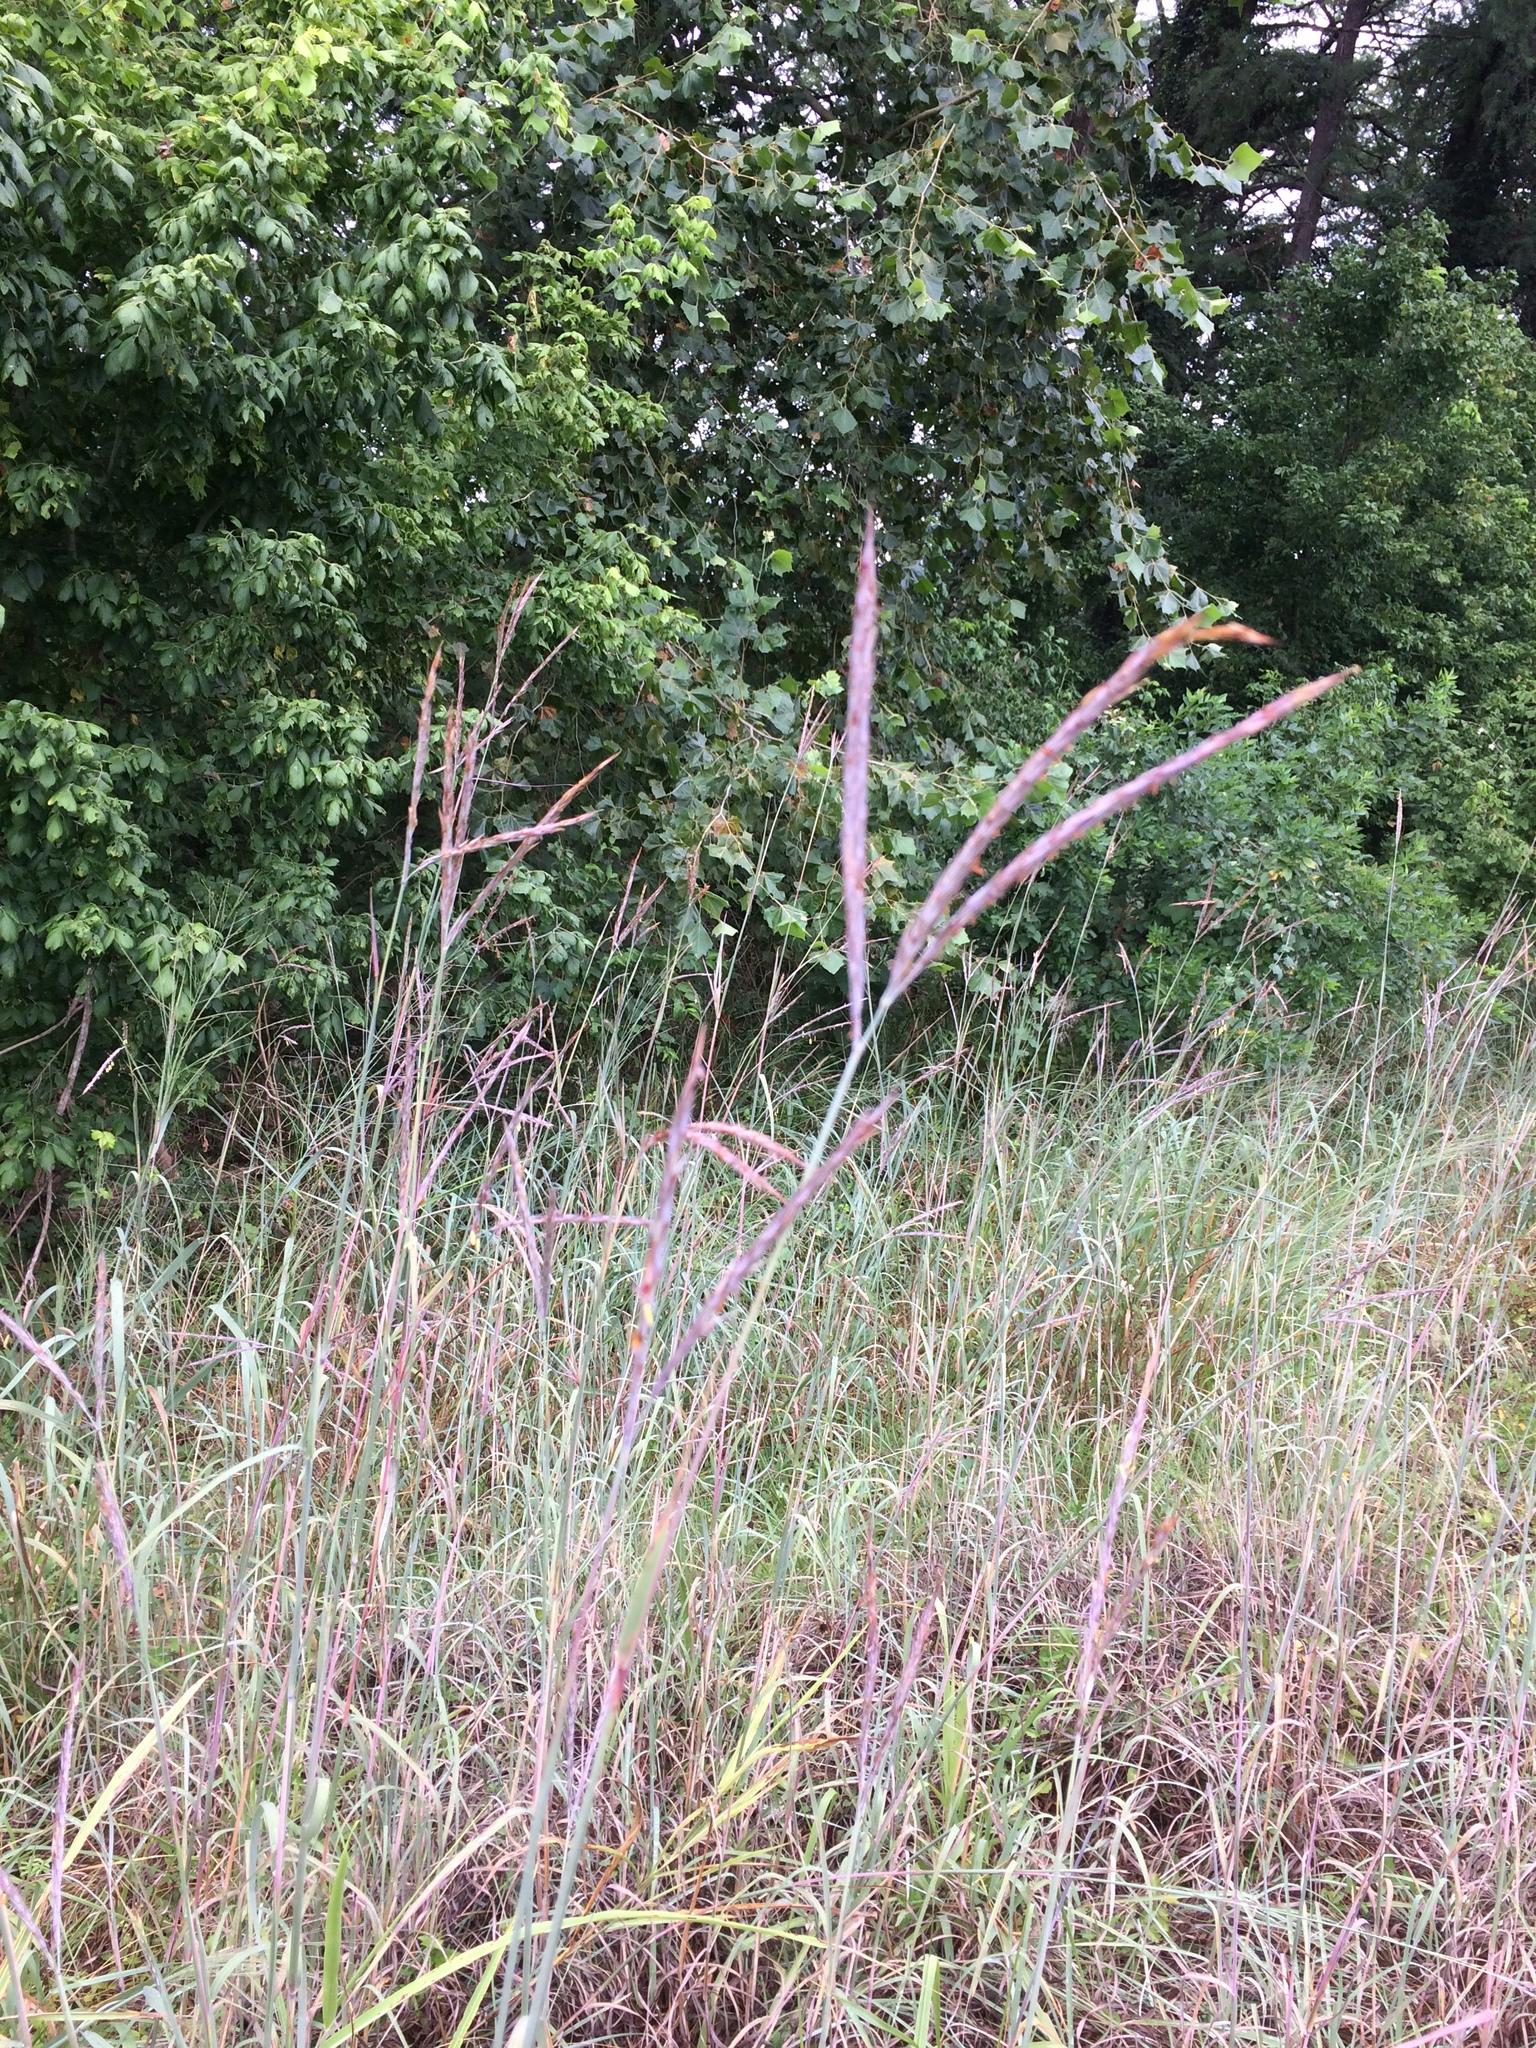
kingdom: Plantae
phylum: Tracheophyta
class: Liliopsida
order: Poales
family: Poaceae
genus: Andropogon
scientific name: Andropogon gerardi
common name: Big bluestem
